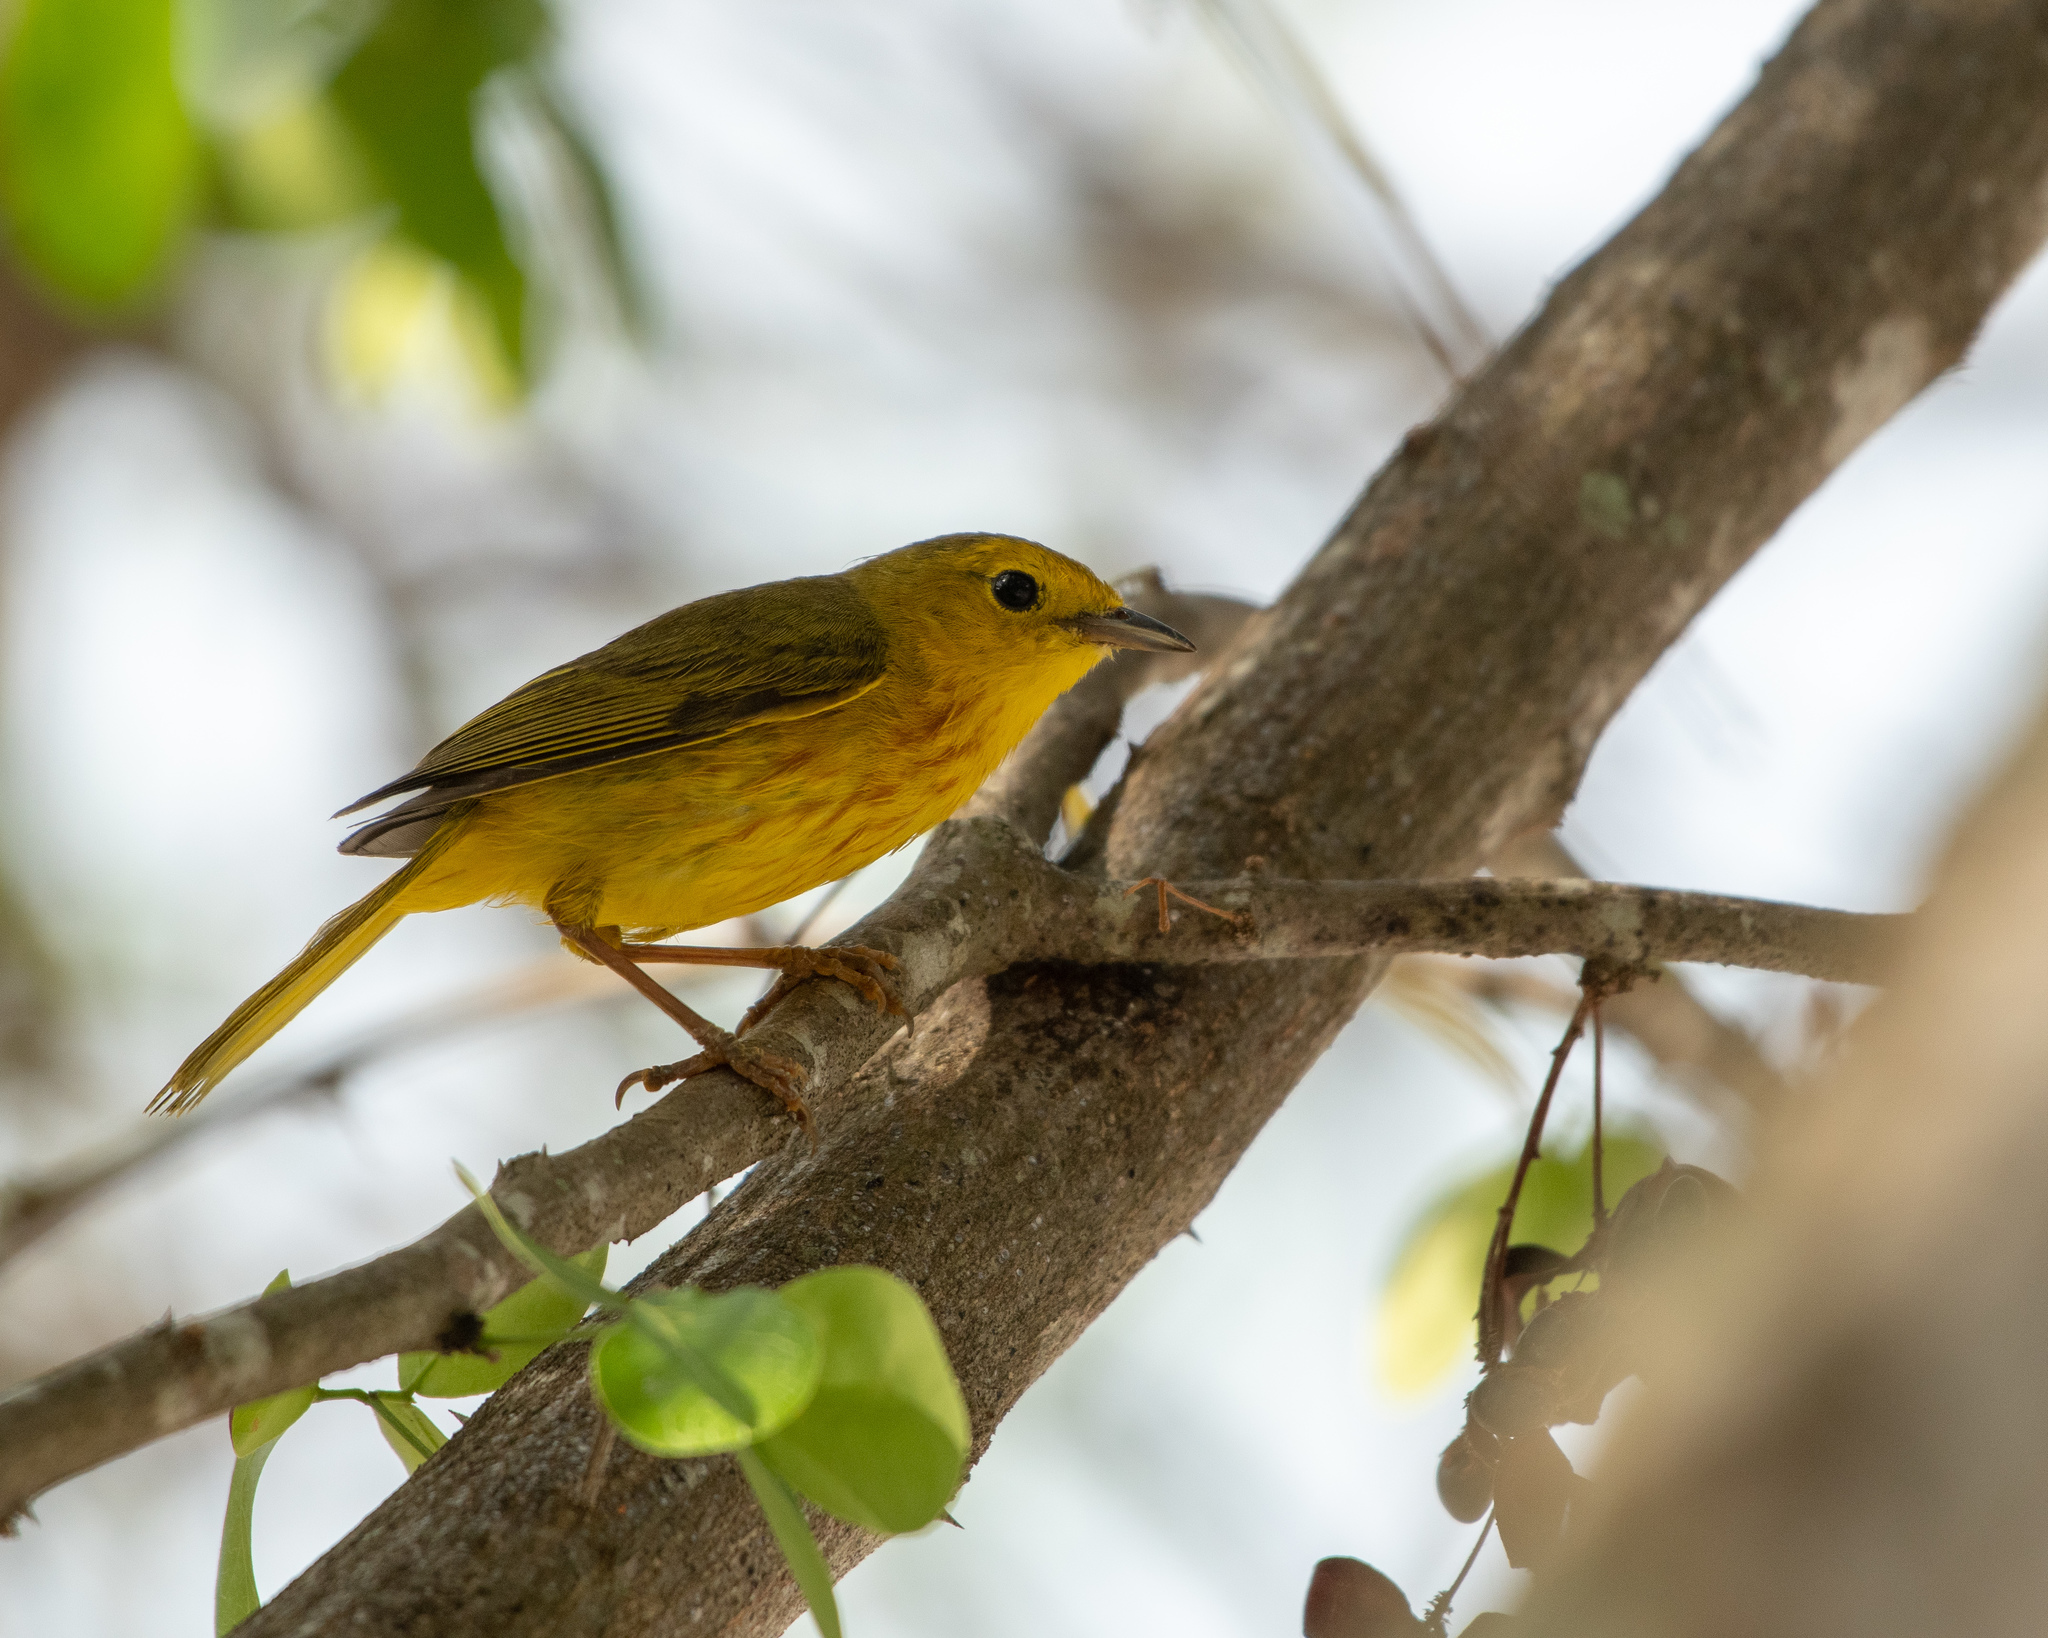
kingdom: Animalia
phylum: Chordata
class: Aves
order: Passeriformes
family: Parulidae
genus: Setophaga
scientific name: Setophaga petechia
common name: Yellow warbler
